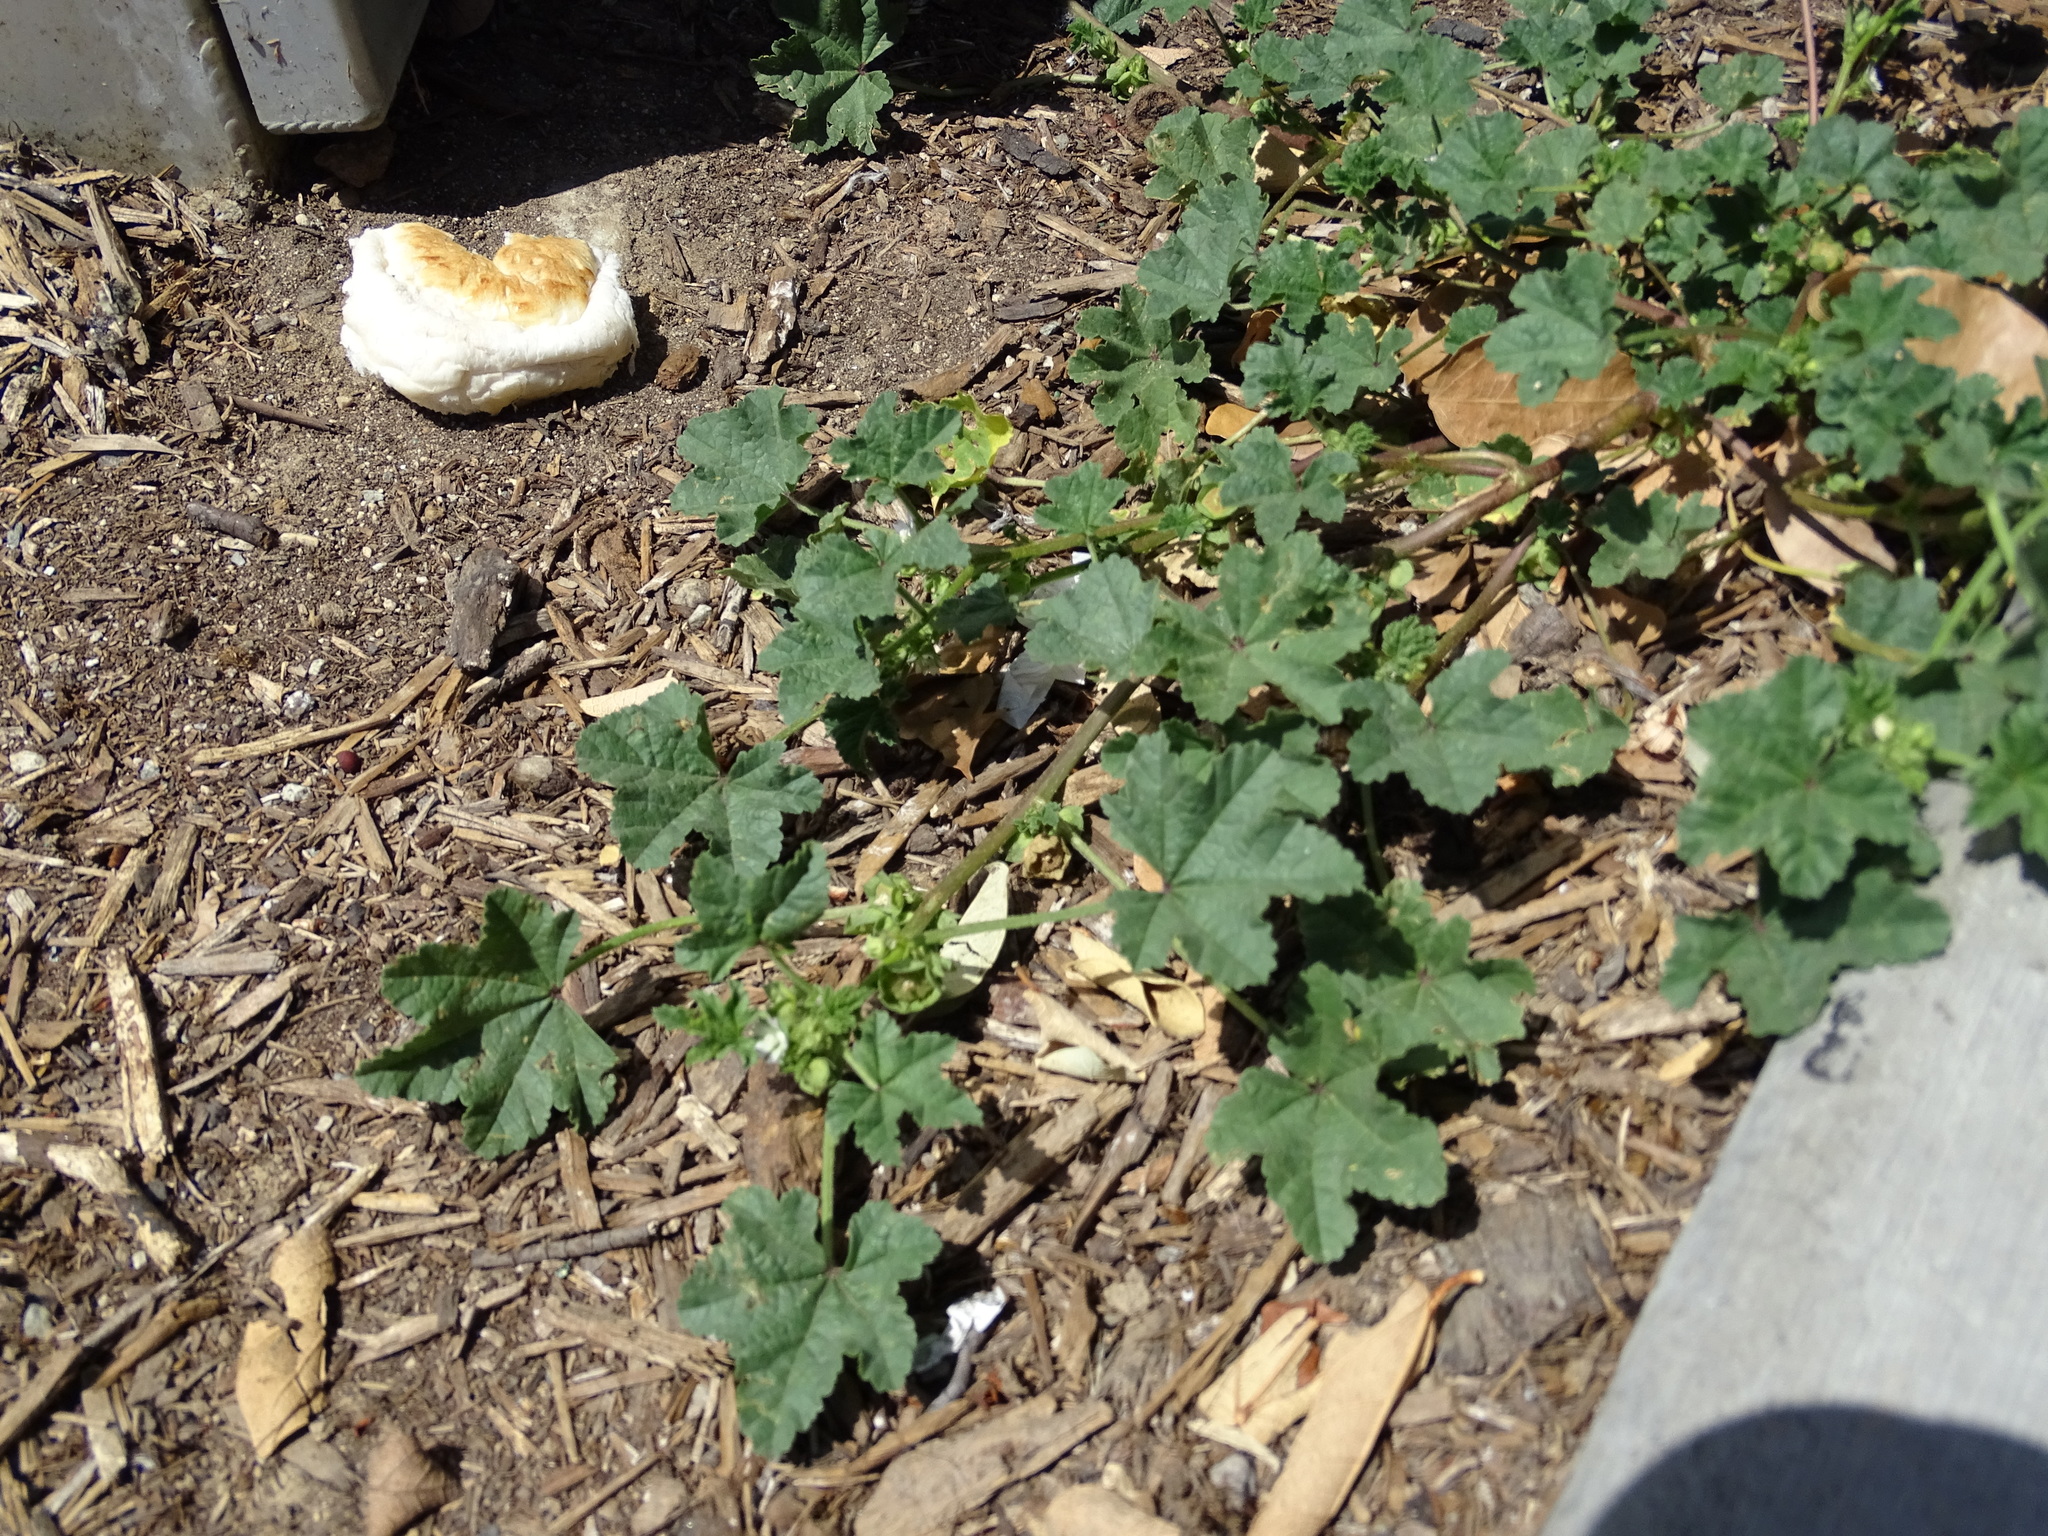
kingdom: Plantae
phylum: Tracheophyta
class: Magnoliopsida
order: Malvales
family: Malvaceae
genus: Malva
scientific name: Malva parviflora
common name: Least mallow
